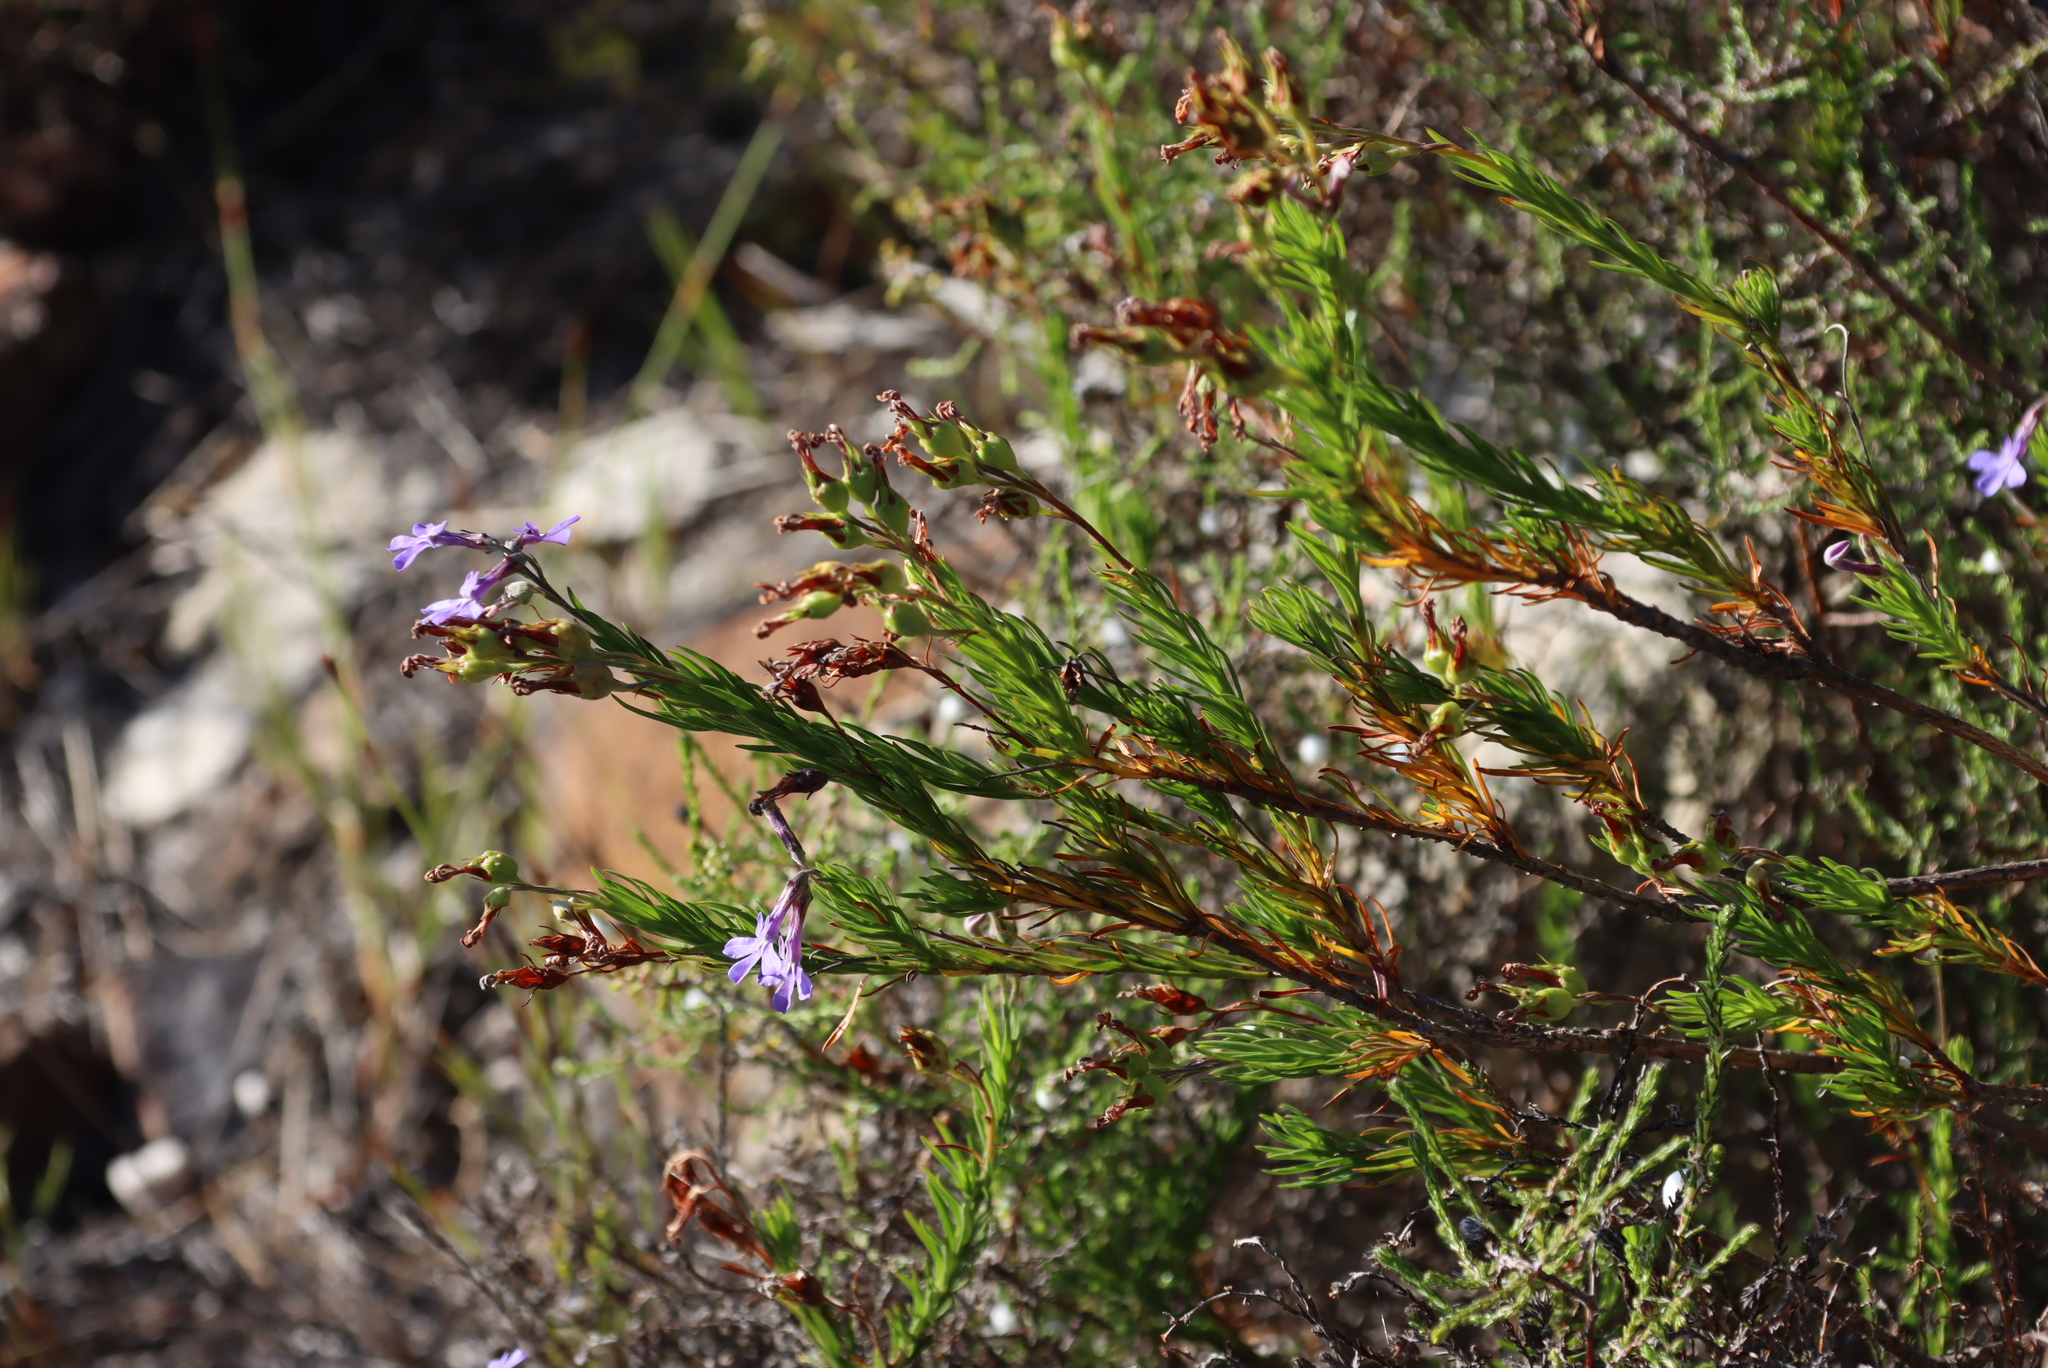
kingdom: Plantae
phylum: Tracheophyta
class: Magnoliopsida
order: Asterales
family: Campanulaceae
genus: Lobelia
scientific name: Lobelia pinifolia
